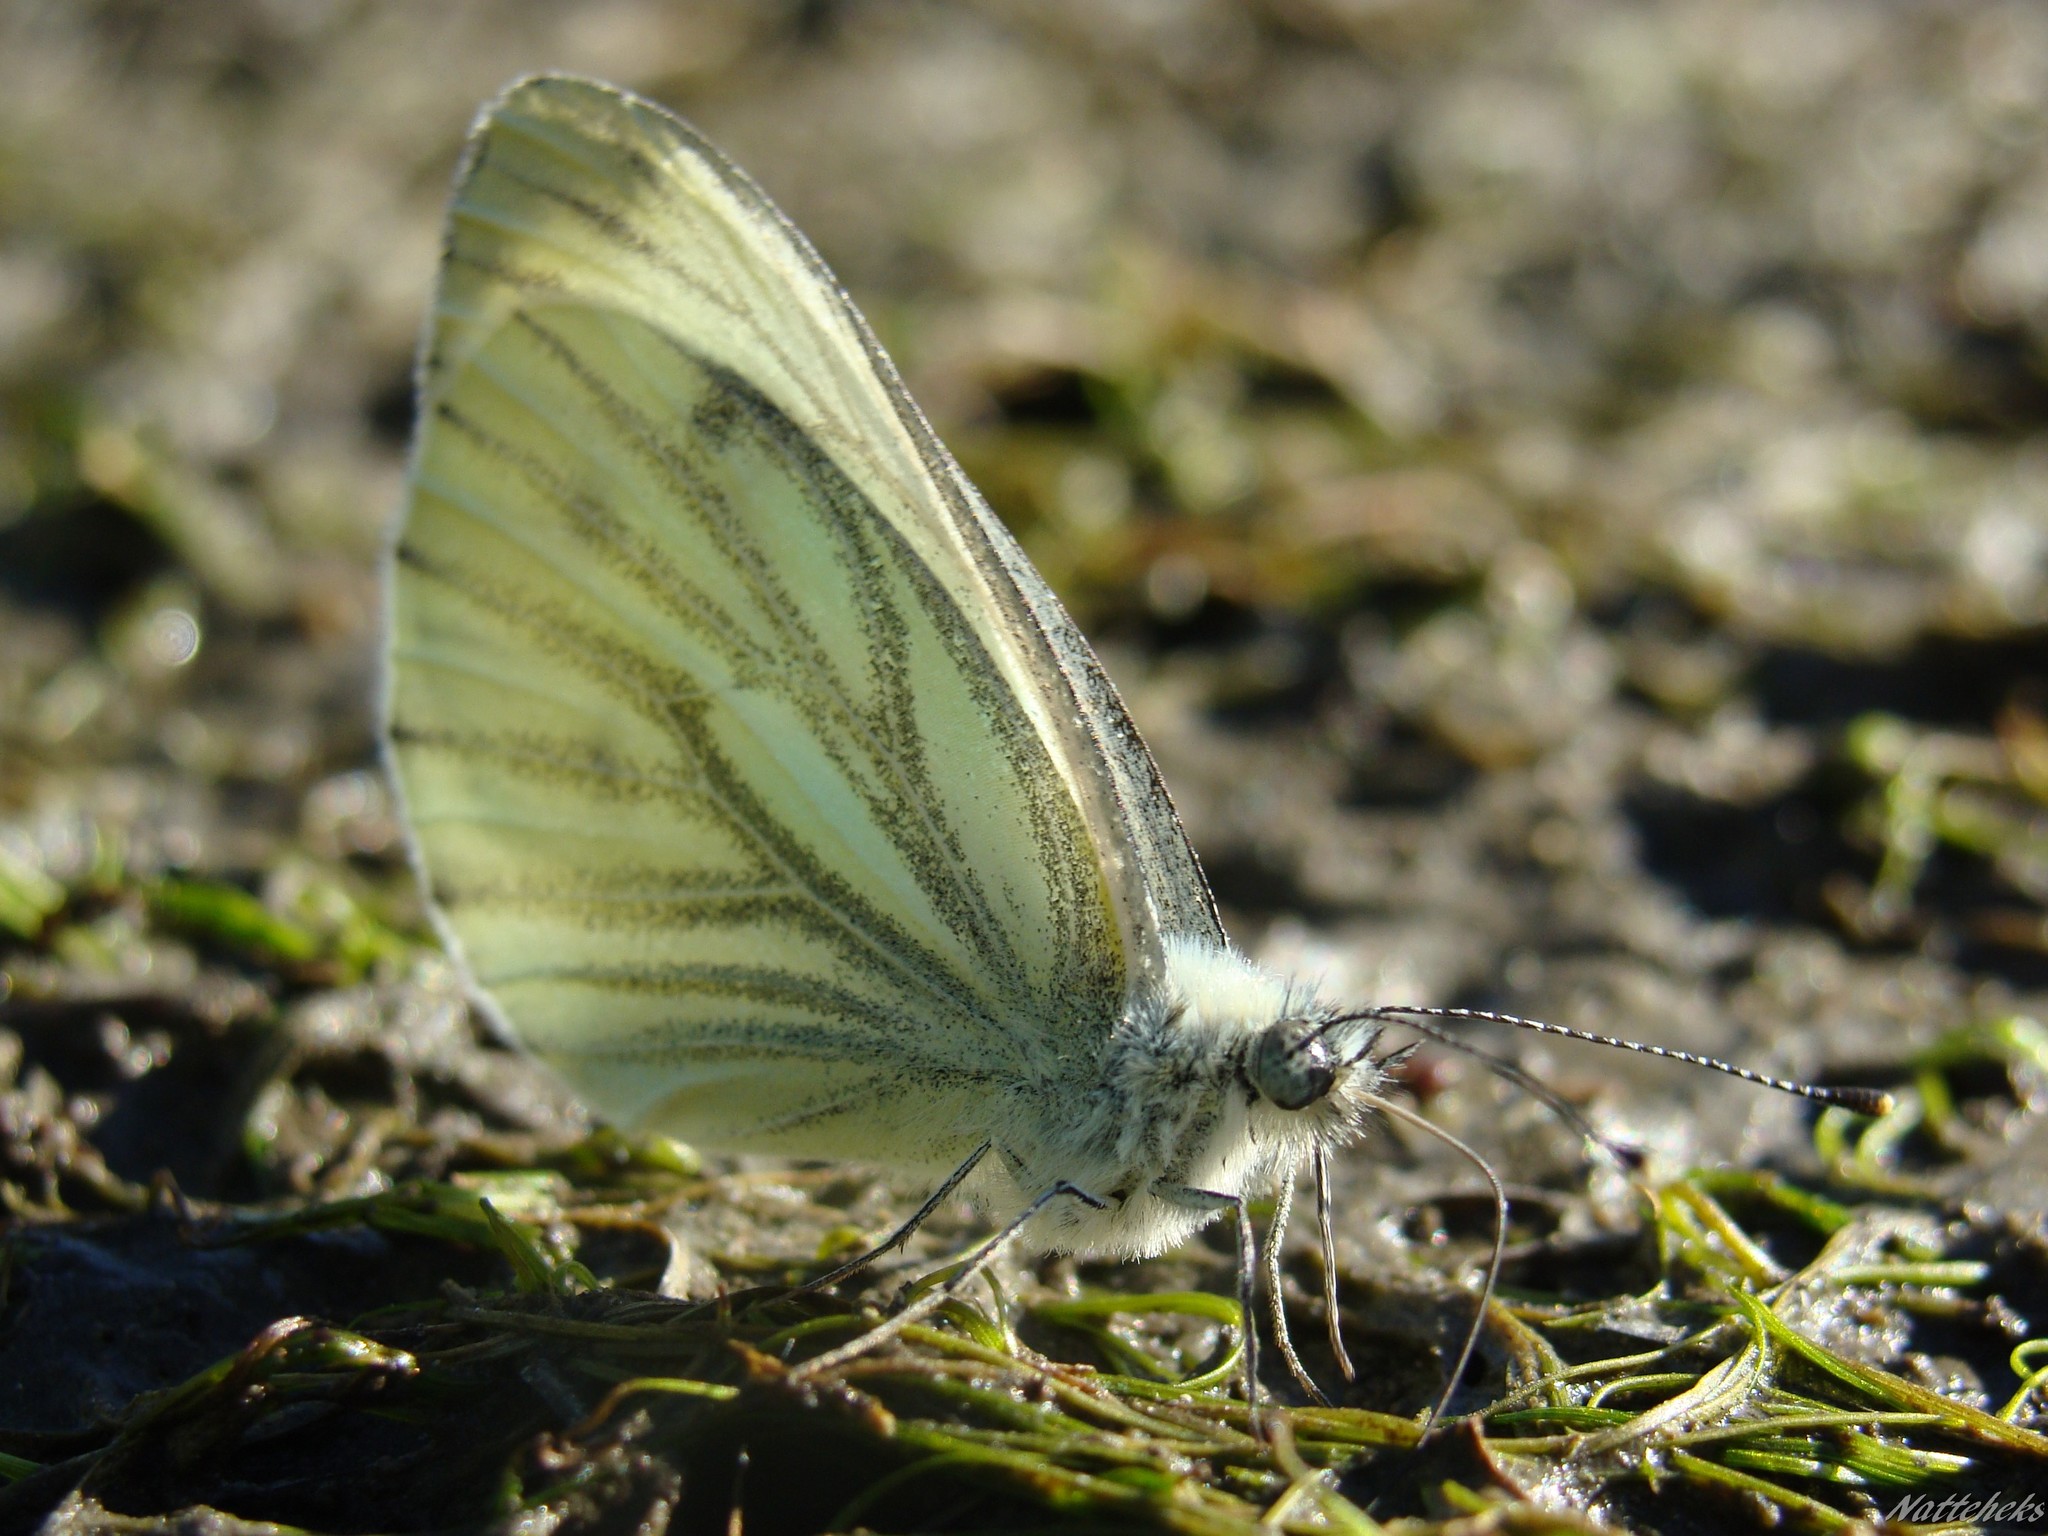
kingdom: Animalia
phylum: Arthropoda
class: Insecta
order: Lepidoptera
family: Pieridae
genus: Pieris
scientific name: Pieris napi
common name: Green-veined white
